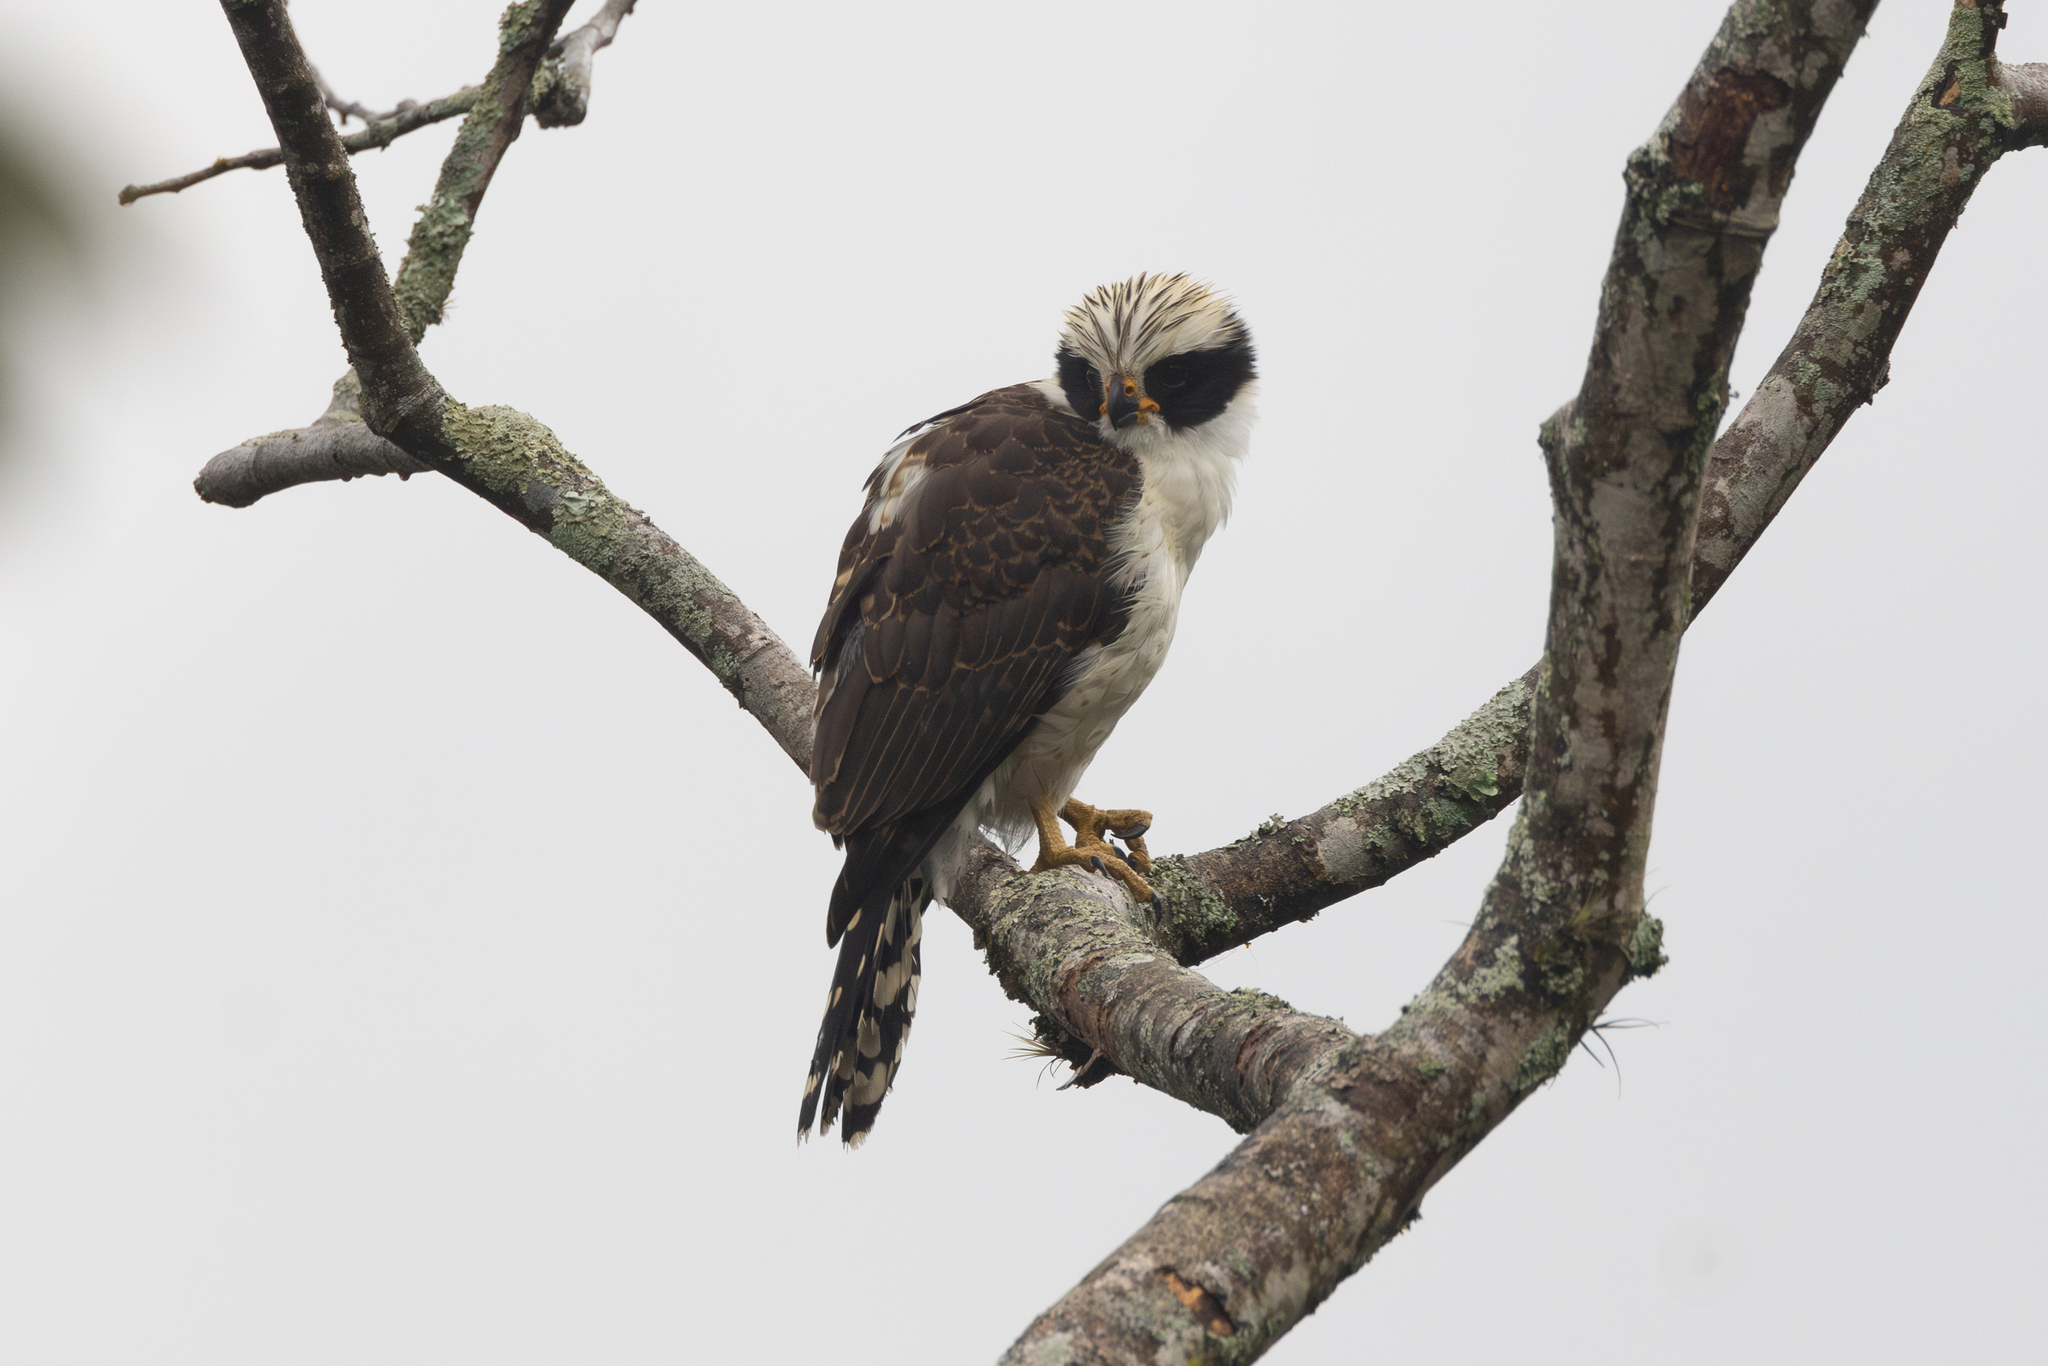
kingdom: Animalia
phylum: Chordata
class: Aves
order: Falconiformes
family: Falconidae
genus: Herpetotheres
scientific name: Herpetotheres cachinnans
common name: Laughing falcon
